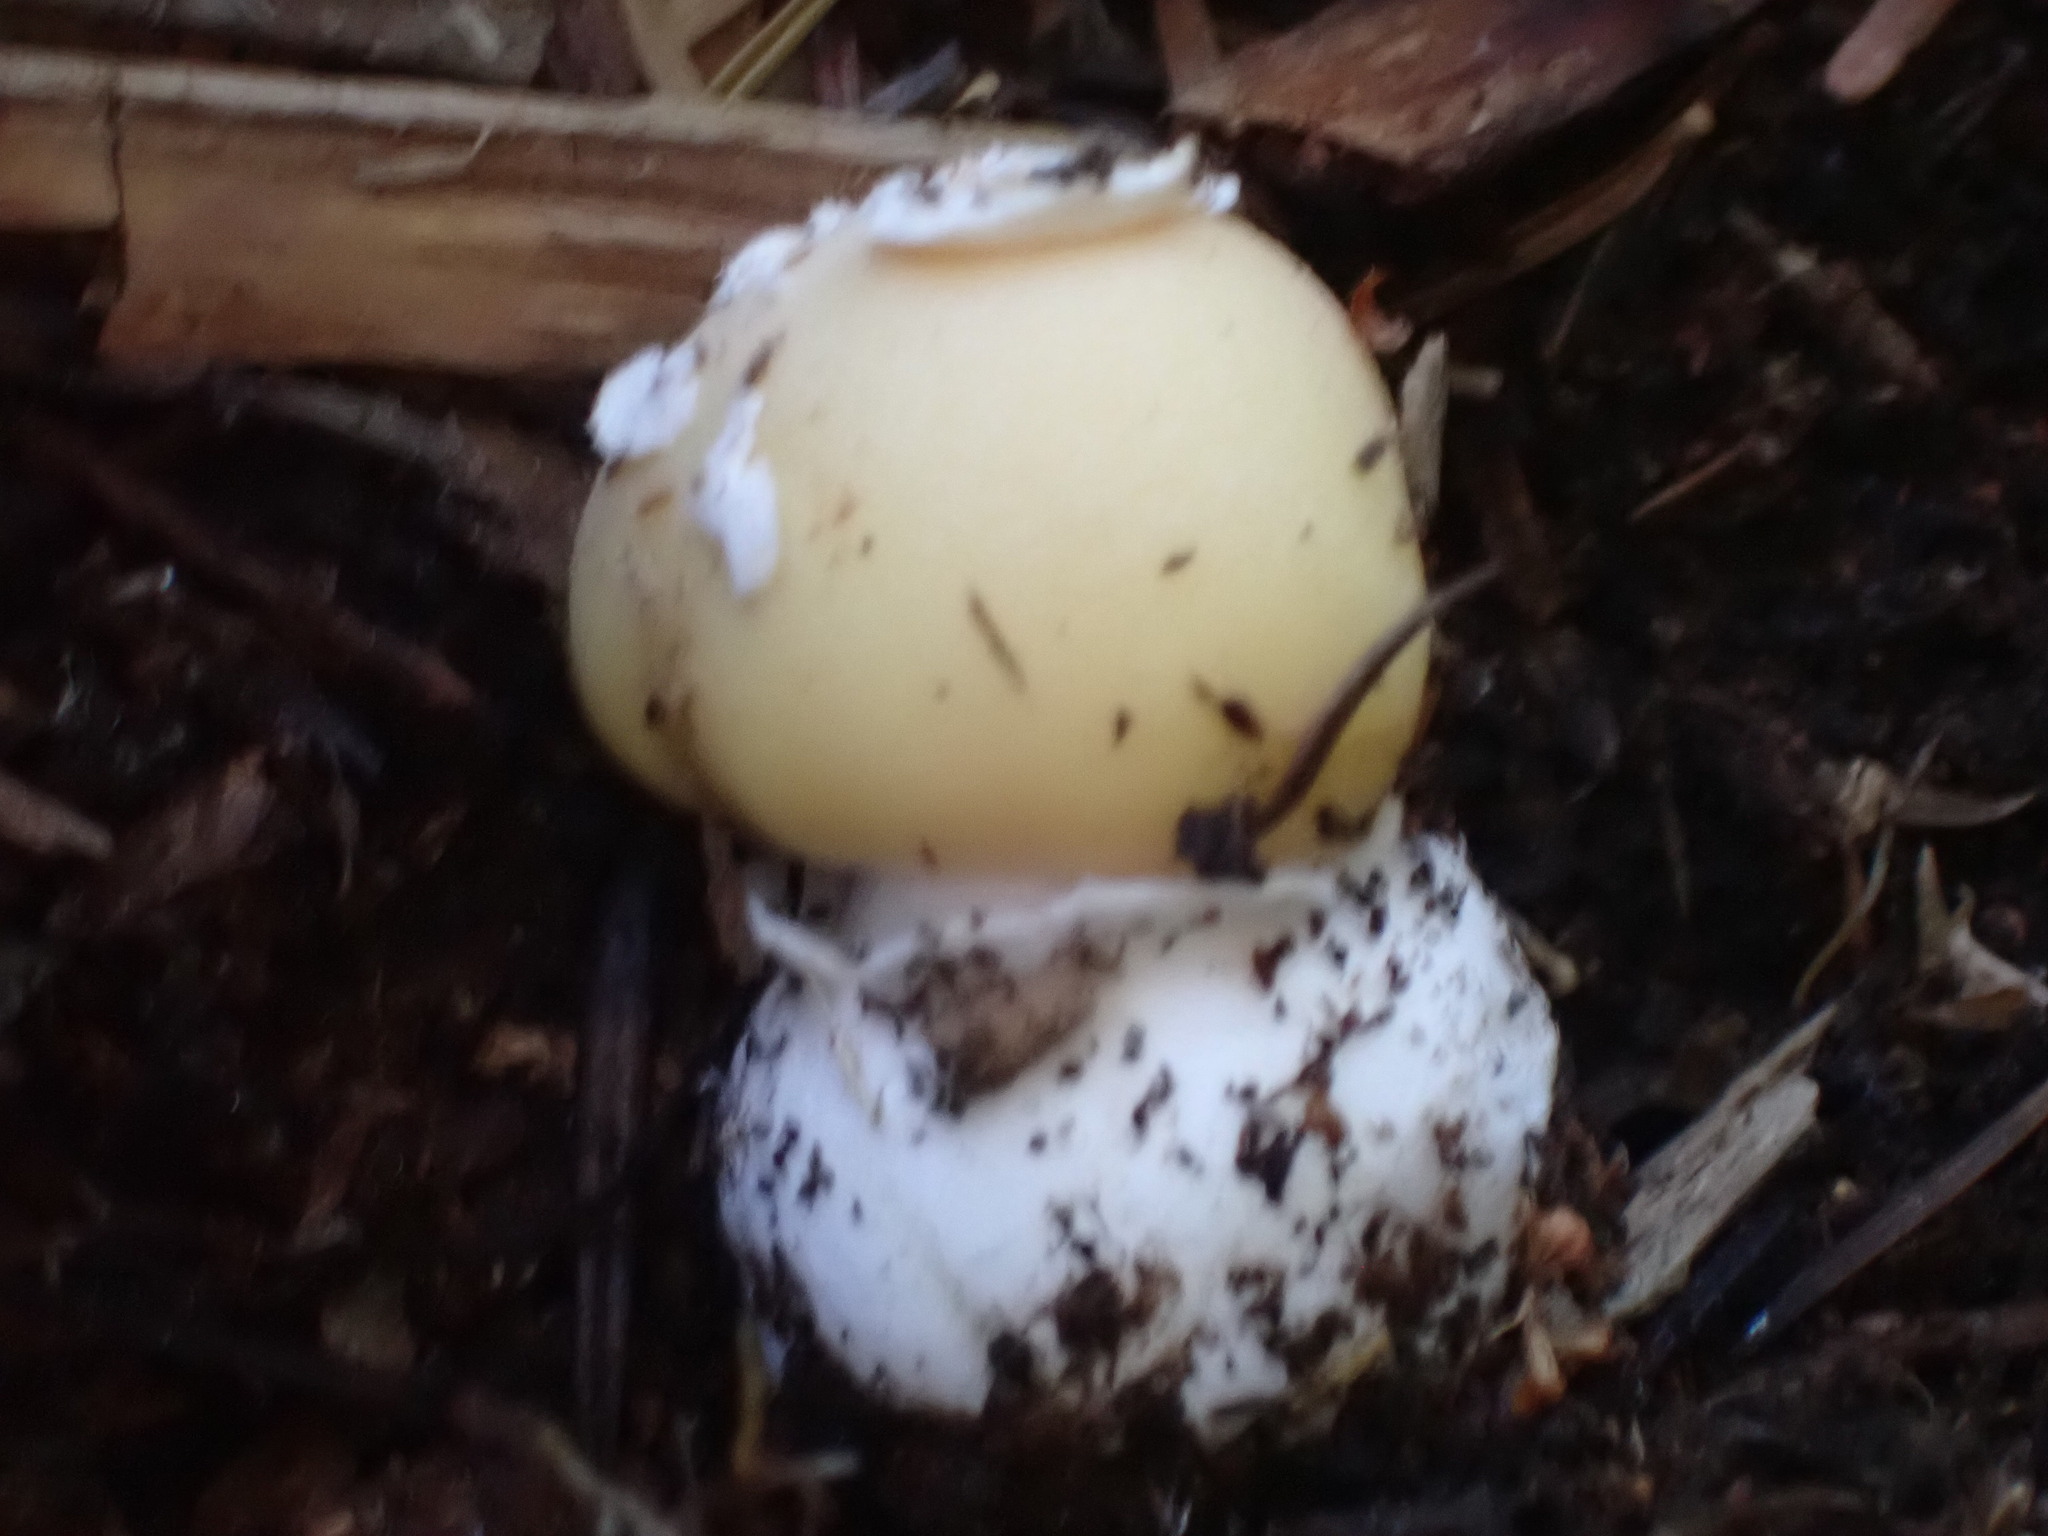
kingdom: Fungi
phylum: Basidiomycota
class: Agaricomycetes
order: Agaricales
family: Amanitaceae
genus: Amanita
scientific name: Amanita gemmata
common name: Jewelled amanita
